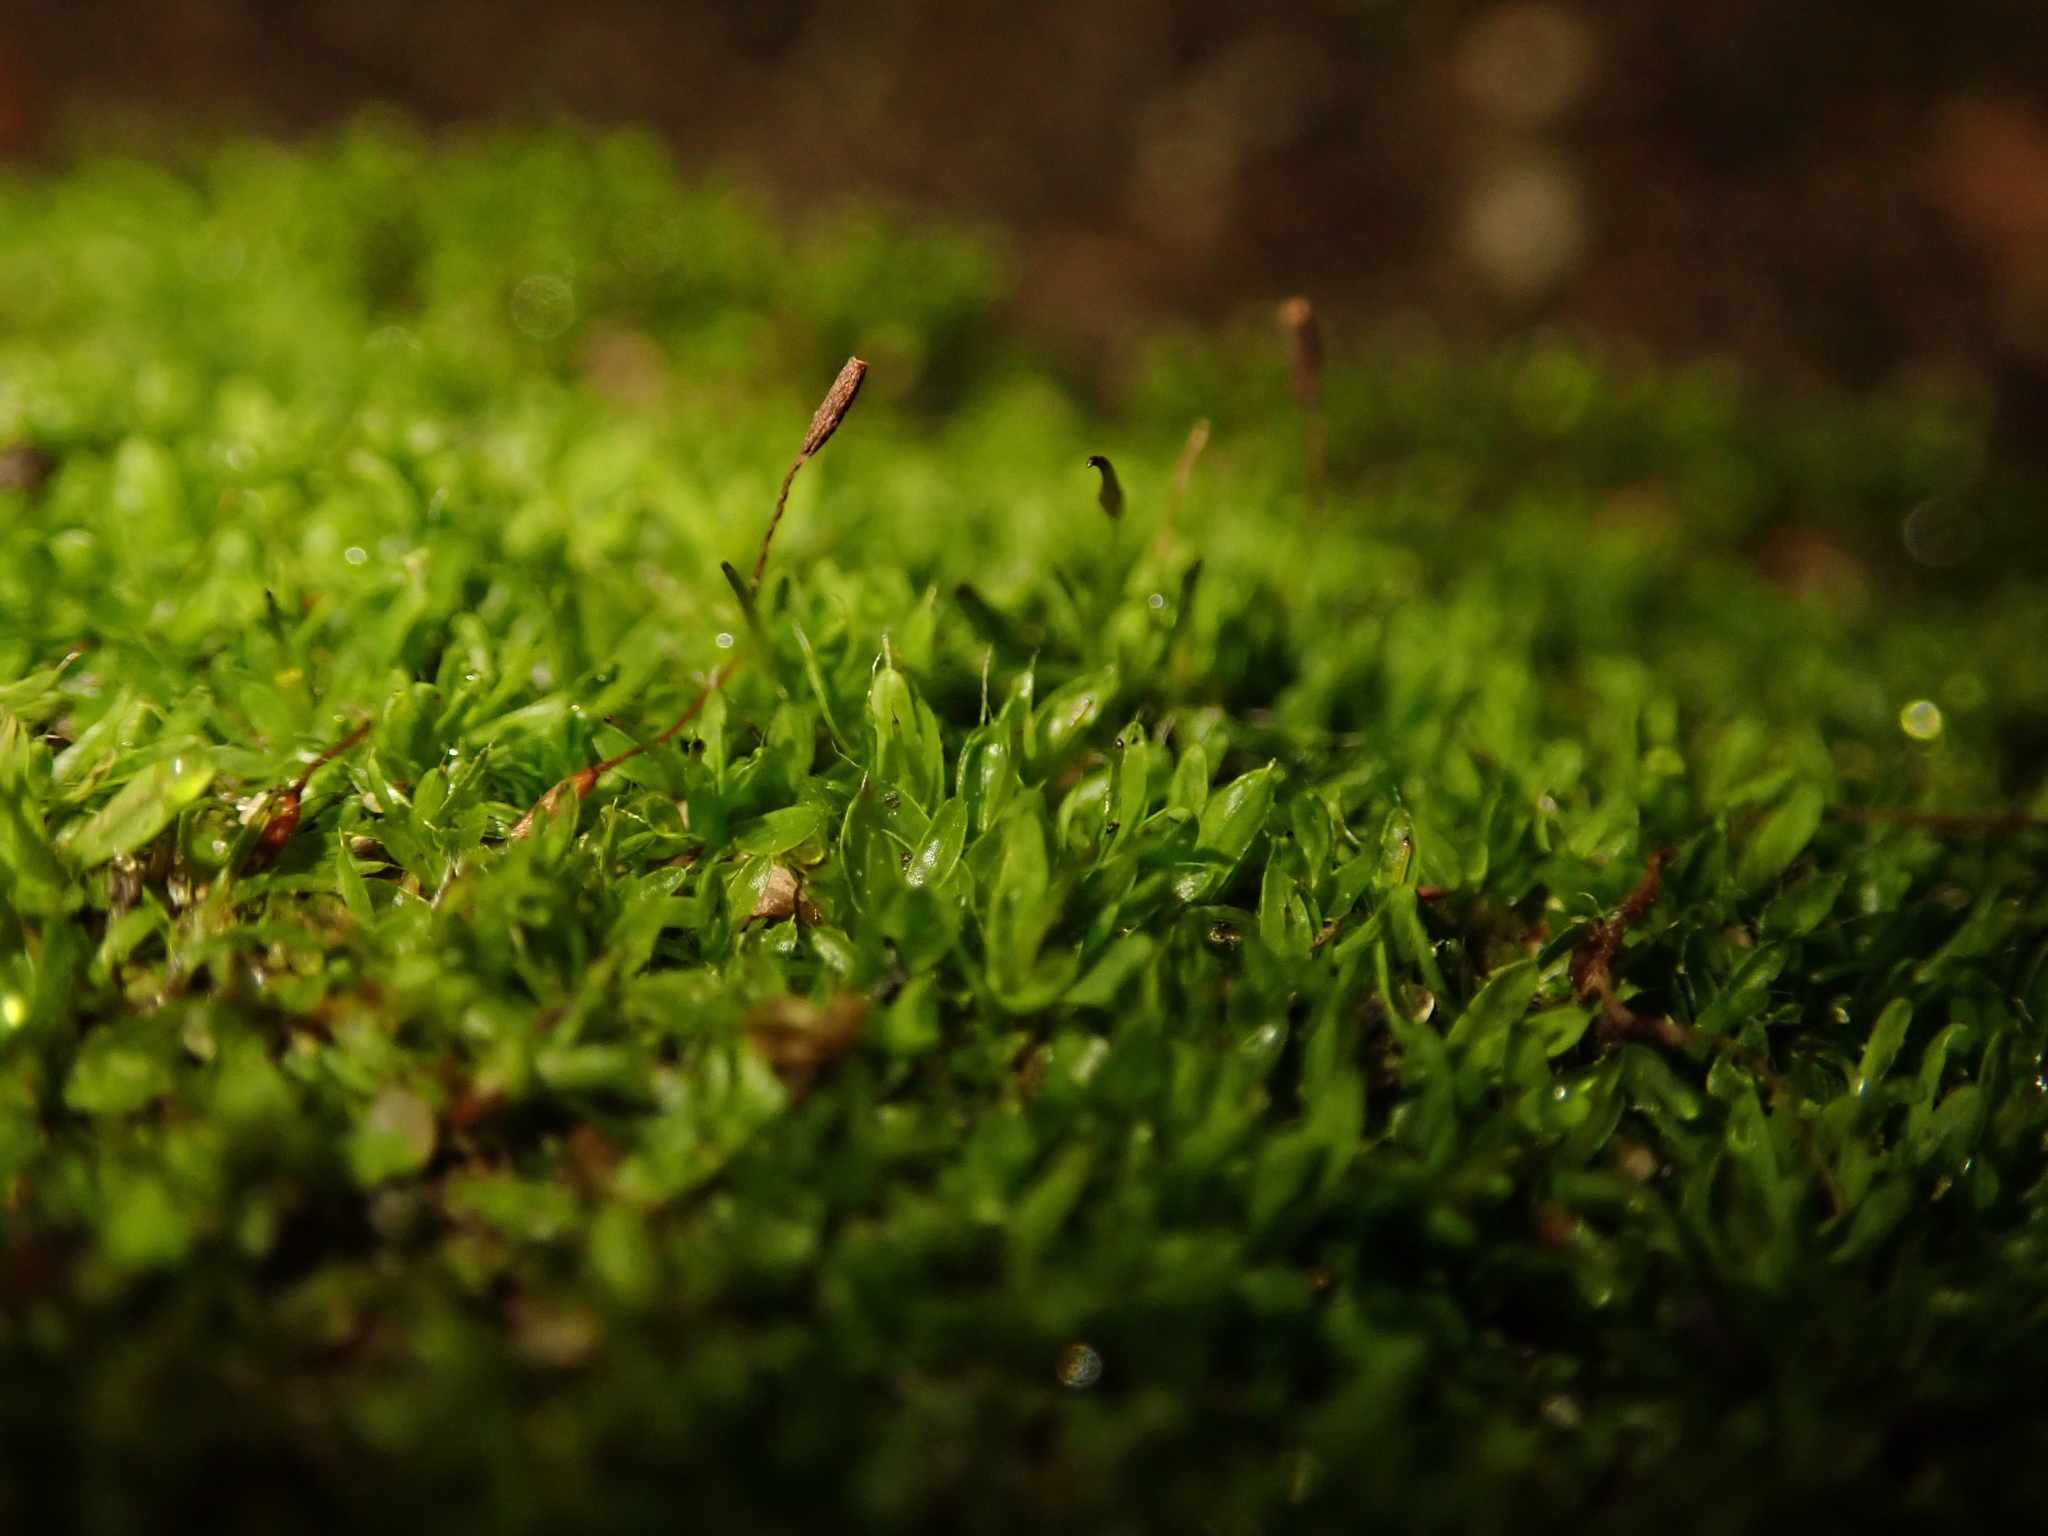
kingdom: Plantae
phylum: Bryophyta
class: Bryopsida
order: Pottiales
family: Pottiaceae
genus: Tortula
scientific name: Tortula muralis
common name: Wall screw-moss
